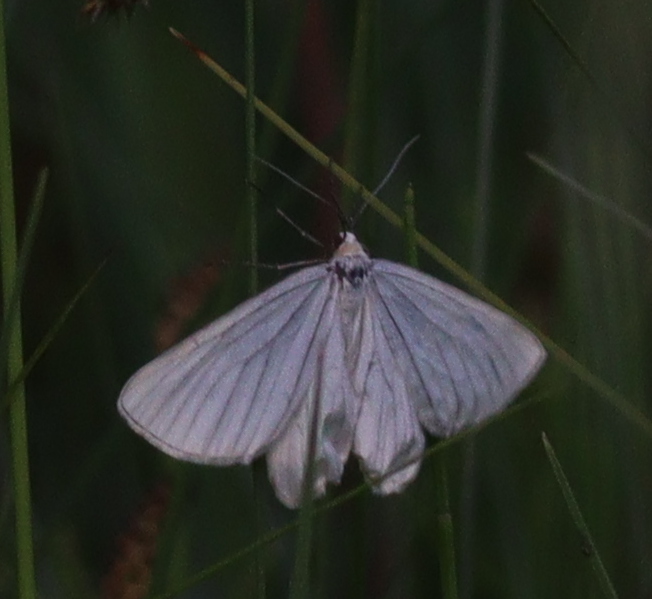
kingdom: Animalia
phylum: Arthropoda
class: Insecta
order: Lepidoptera
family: Geometridae
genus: Siona
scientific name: Siona lineata
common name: Black-veined moth
